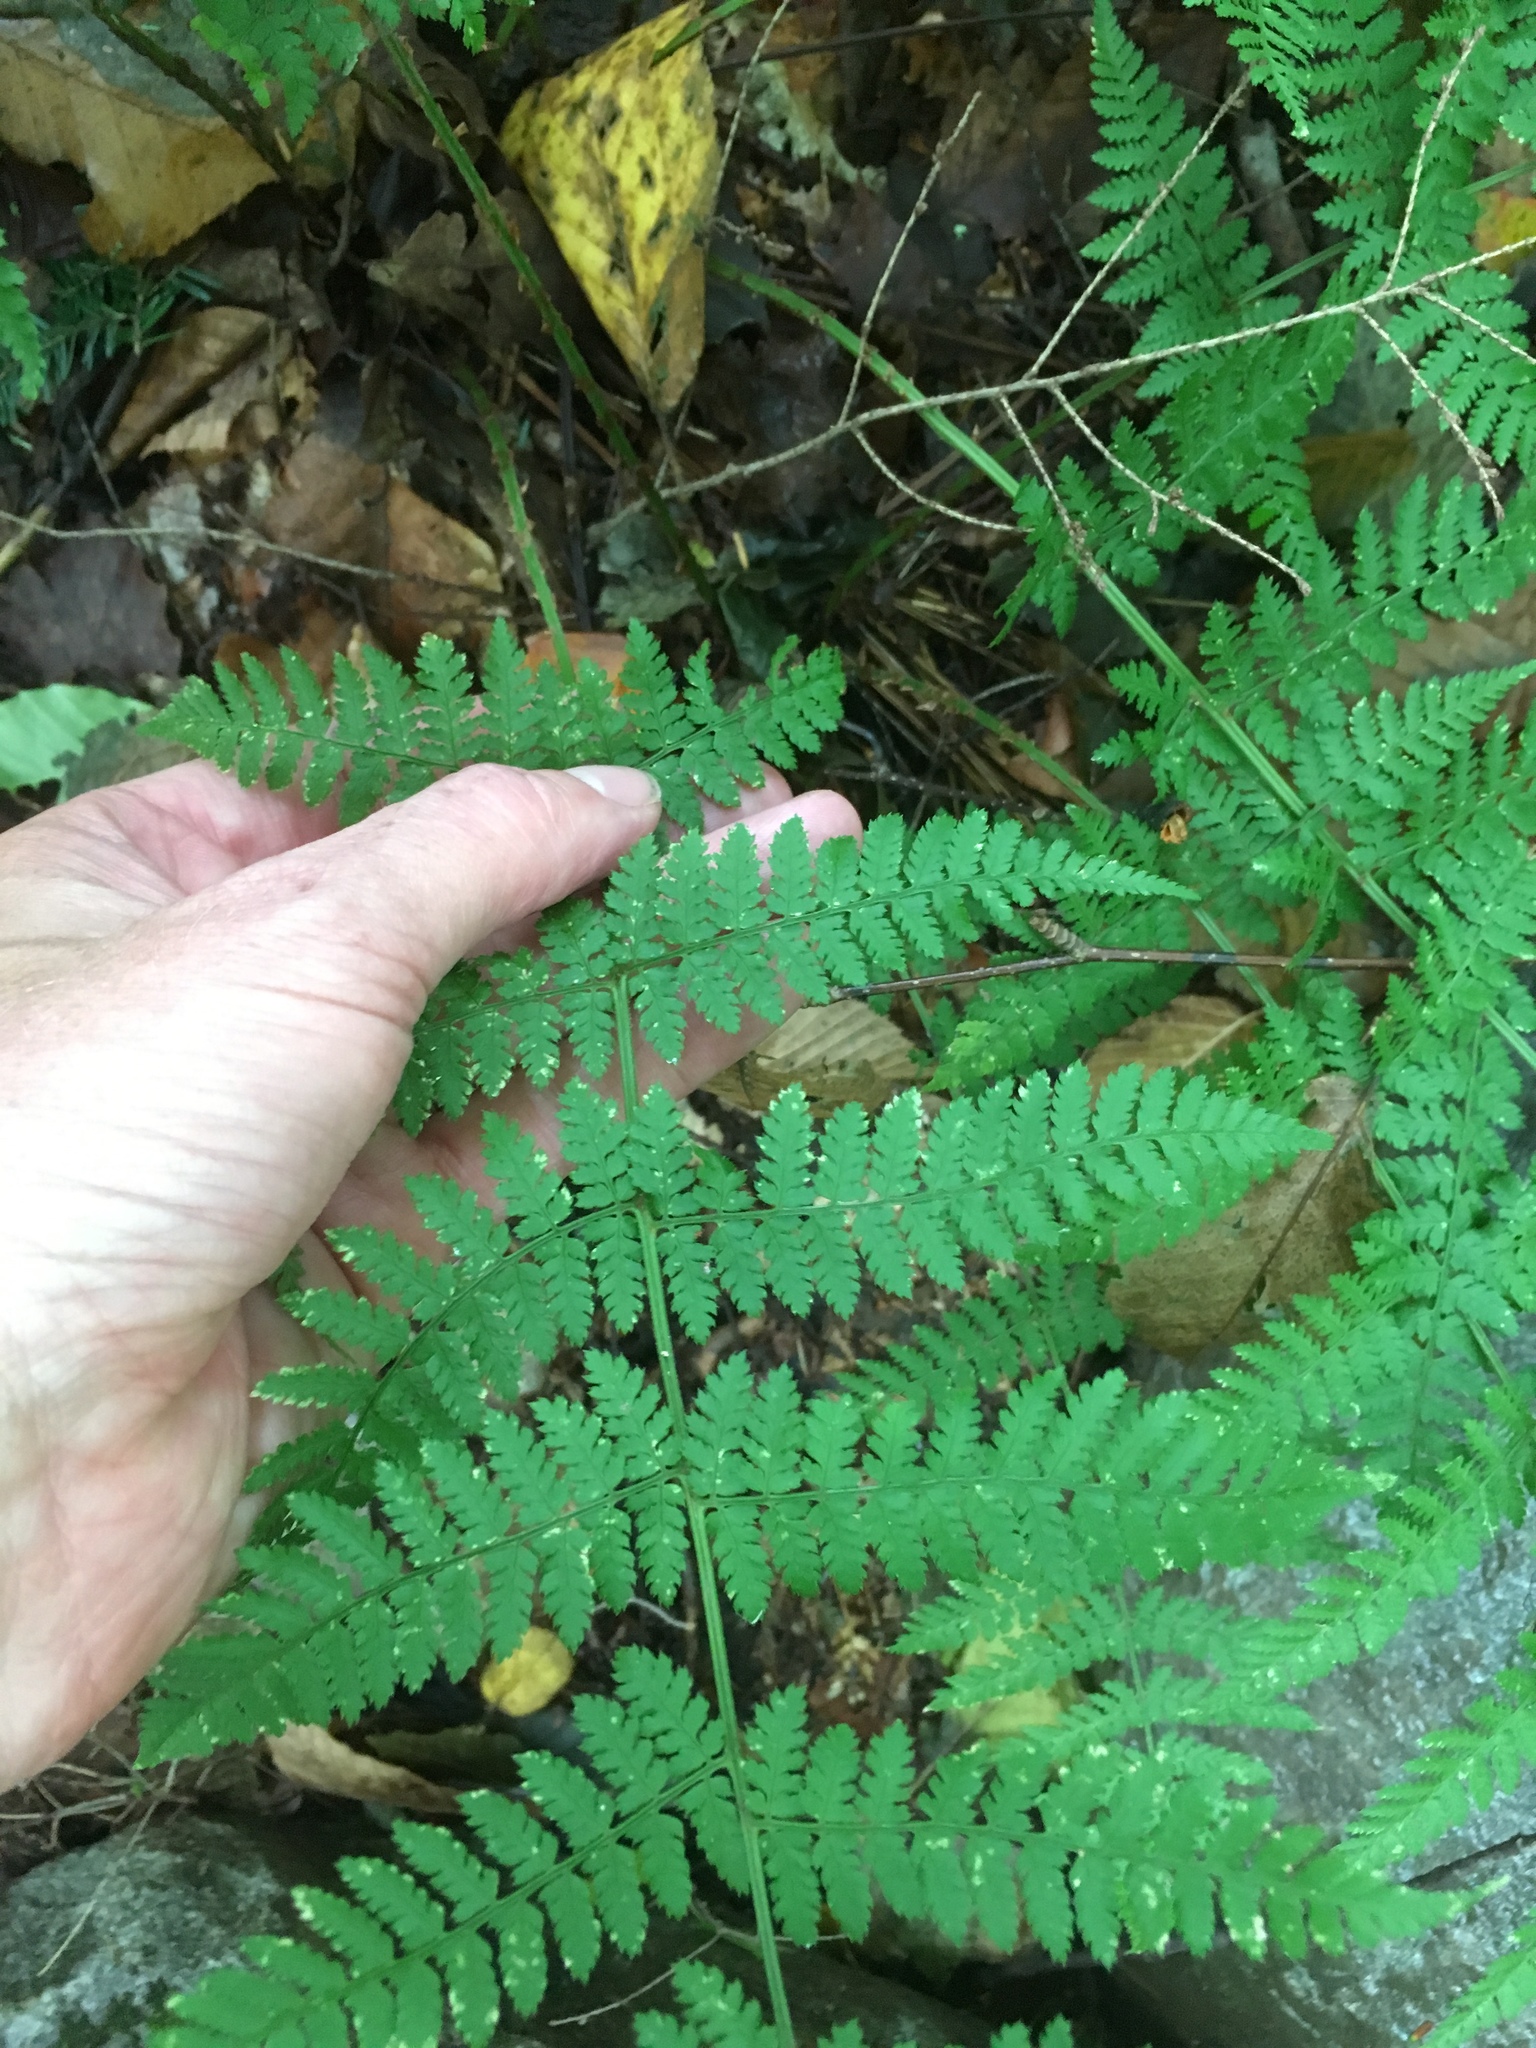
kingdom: Plantae
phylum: Tracheophyta
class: Polypodiopsida
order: Polypodiales
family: Dryopteridaceae
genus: Dryopteris
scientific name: Dryopteris intermedia
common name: Evergreen wood fern
